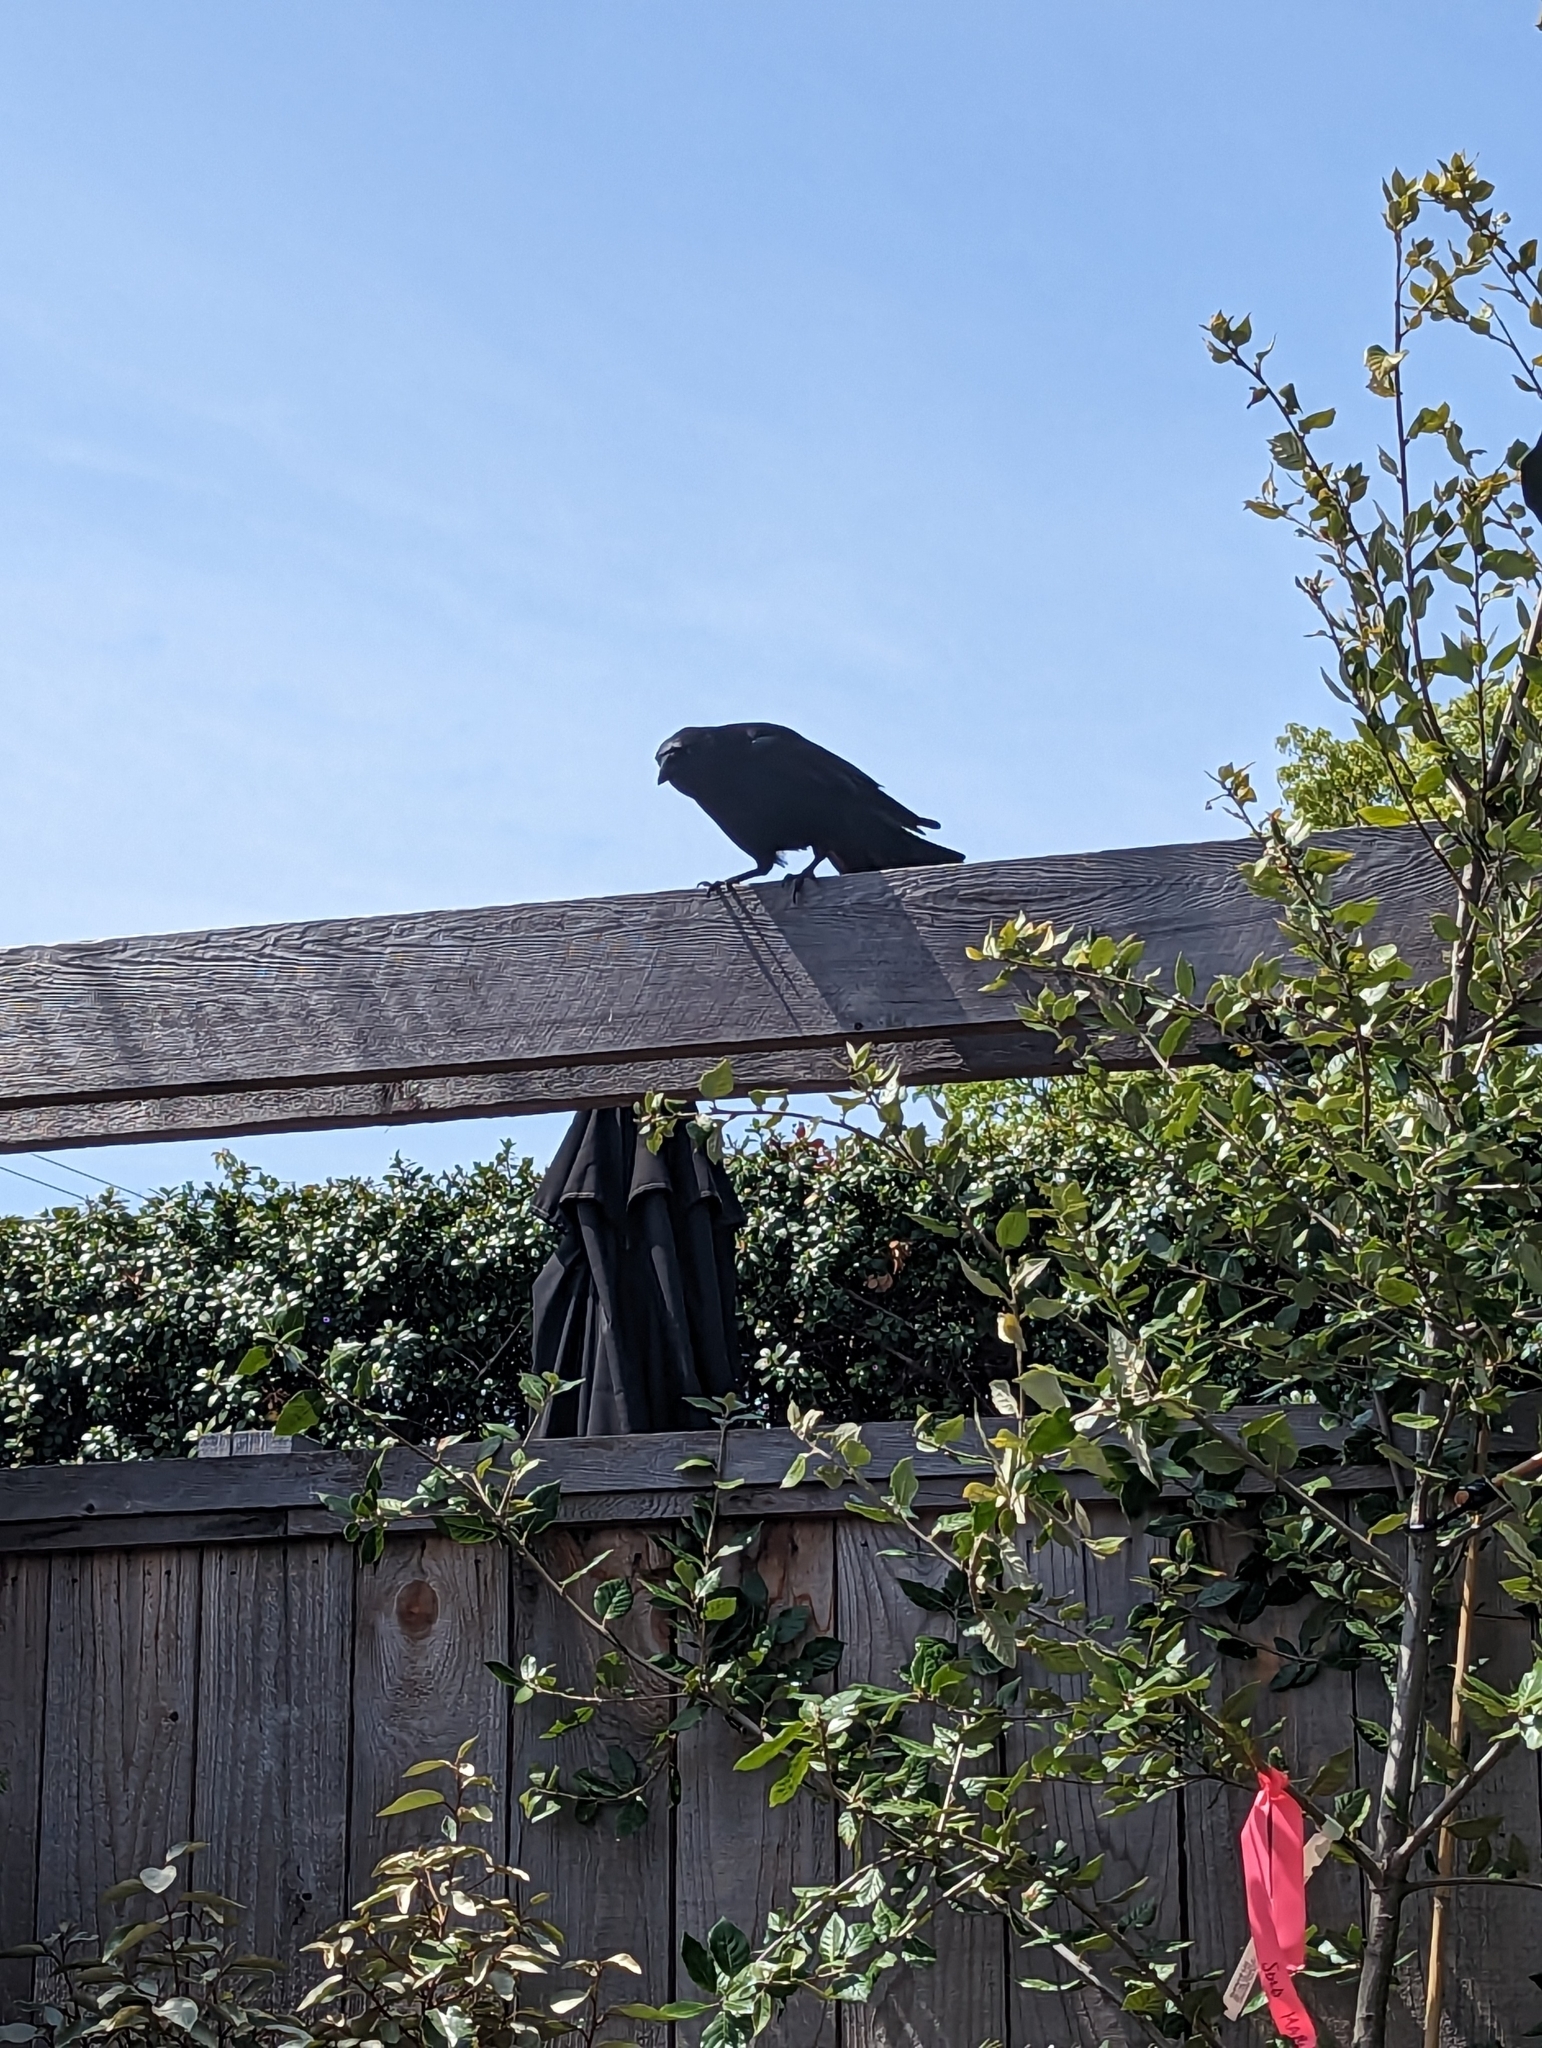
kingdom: Animalia
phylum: Chordata
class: Aves
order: Passeriformes
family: Corvidae
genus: Corvus
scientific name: Corvus brachyrhynchos
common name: American crow
